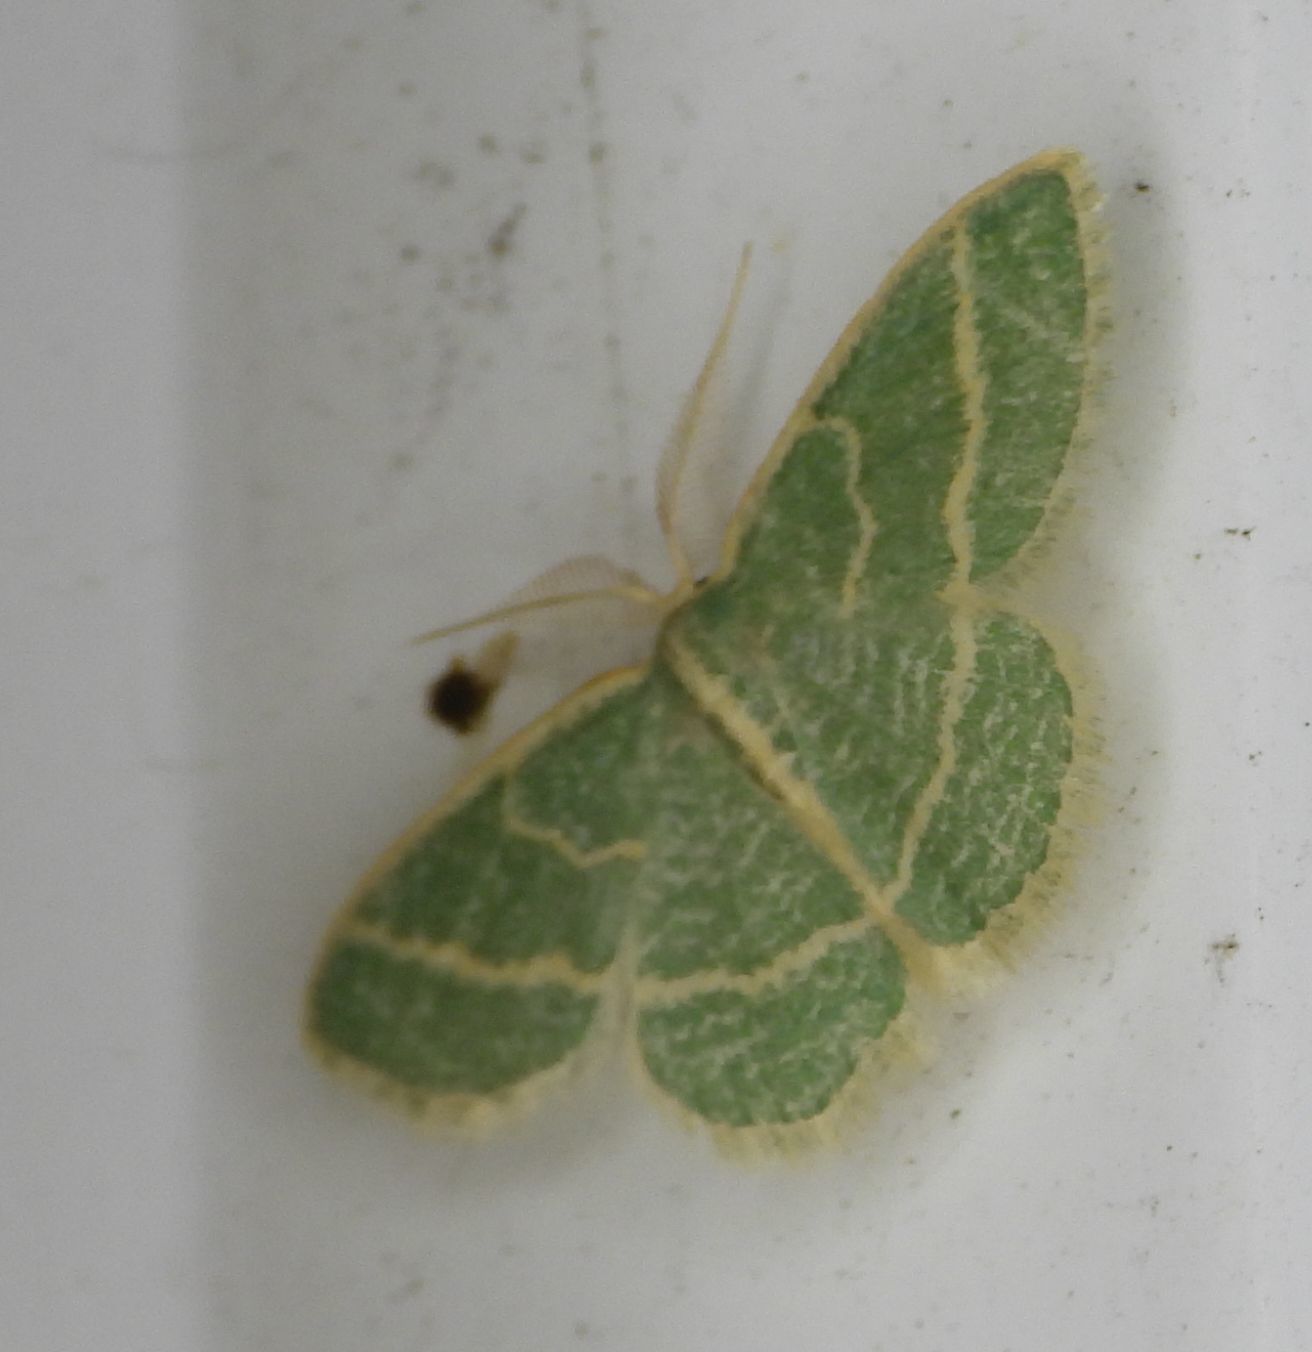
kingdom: Animalia
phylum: Arthropoda
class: Insecta
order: Lepidoptera
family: Geometridae
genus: Chlorochlamys
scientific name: Chlorochlamys chloroleucaria
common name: Blackberry looper
